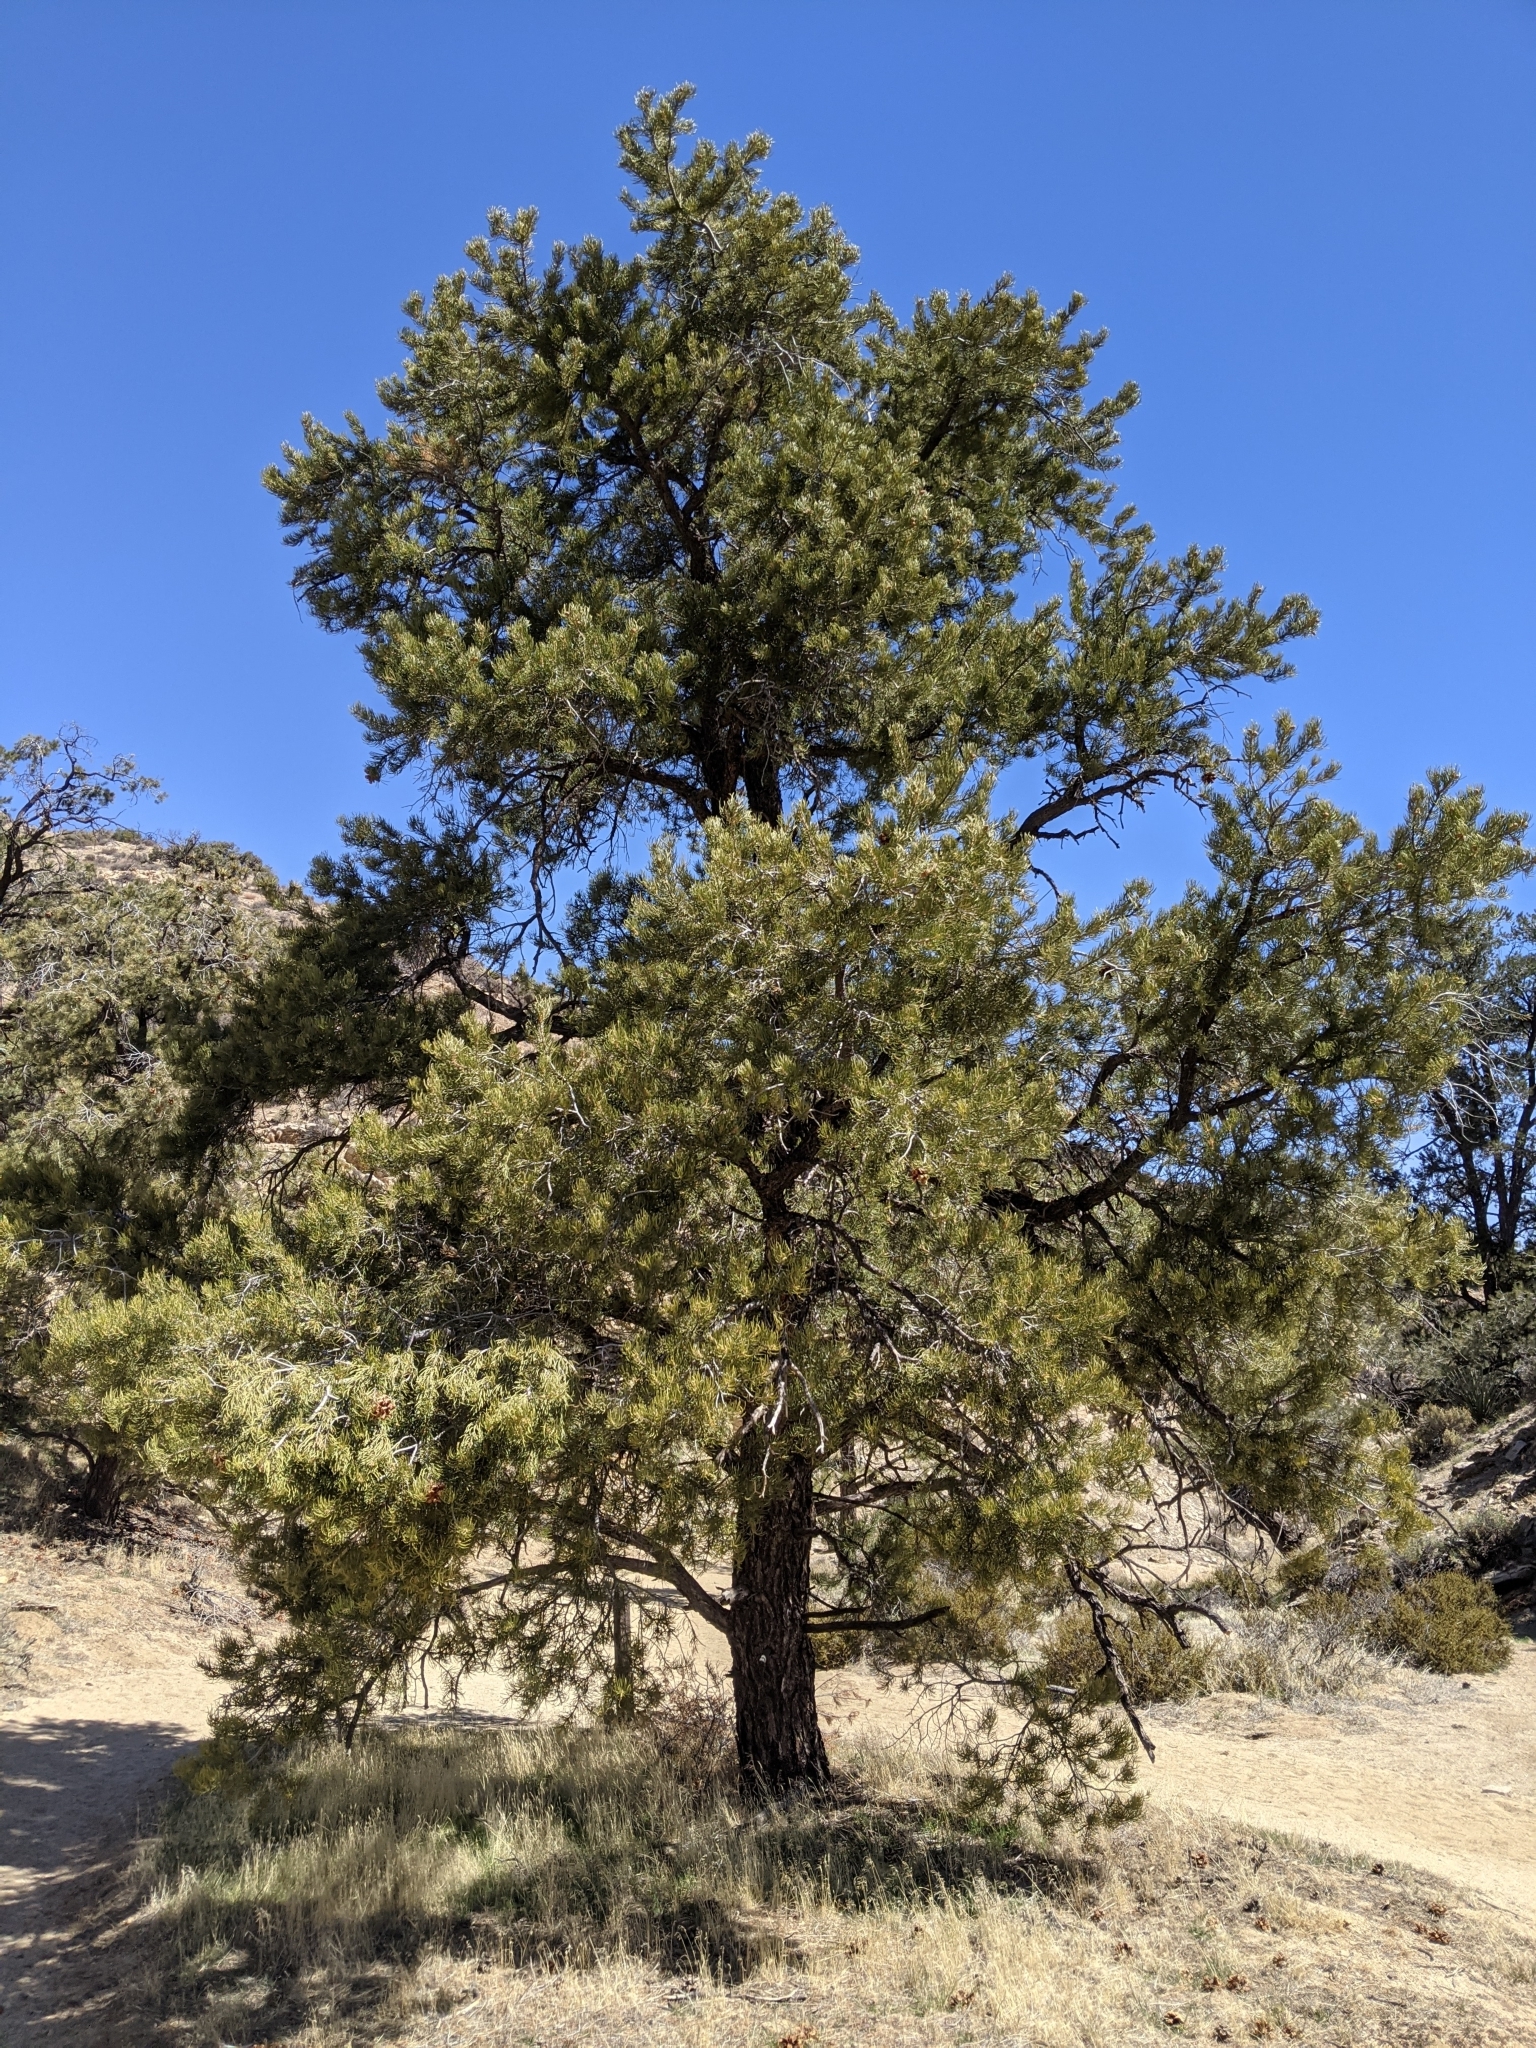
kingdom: Plantae
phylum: Tracheophyta
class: Pinopsida
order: Pinales
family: Pinaceae
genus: Pinus
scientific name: Pinus monophylla
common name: One-leaved nut pine
